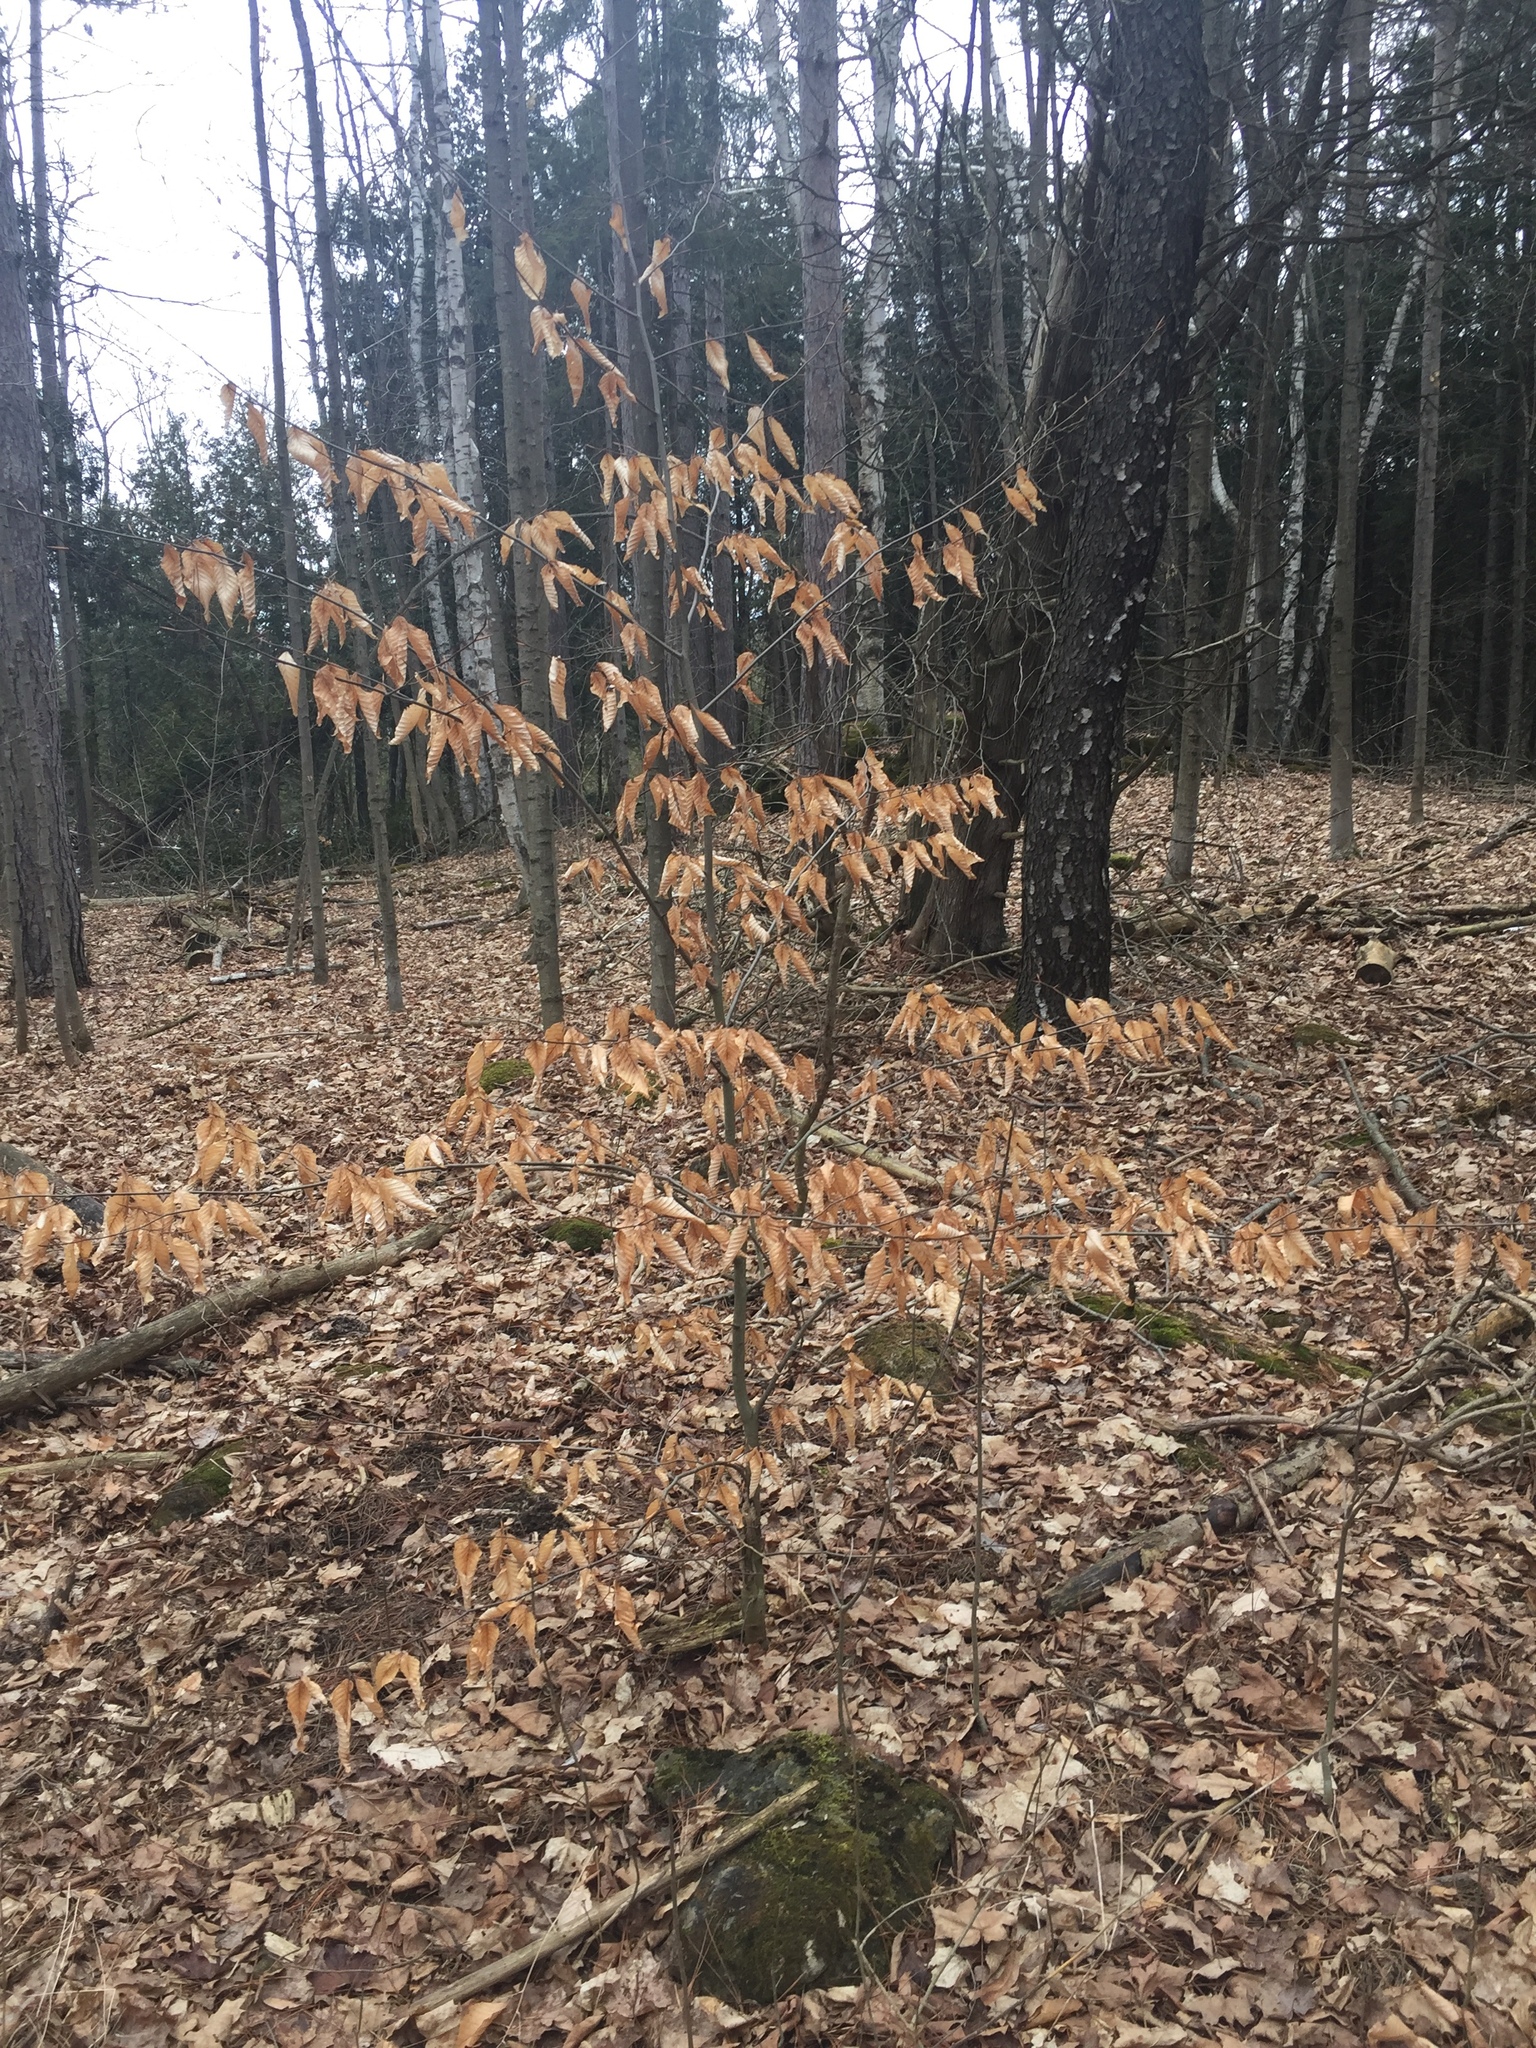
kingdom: Plantae
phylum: Tracheophyta
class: Magnoliopsida
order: Fagales
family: Fagaceae
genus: Fagus
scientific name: Fagus grandifolia
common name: American beech
